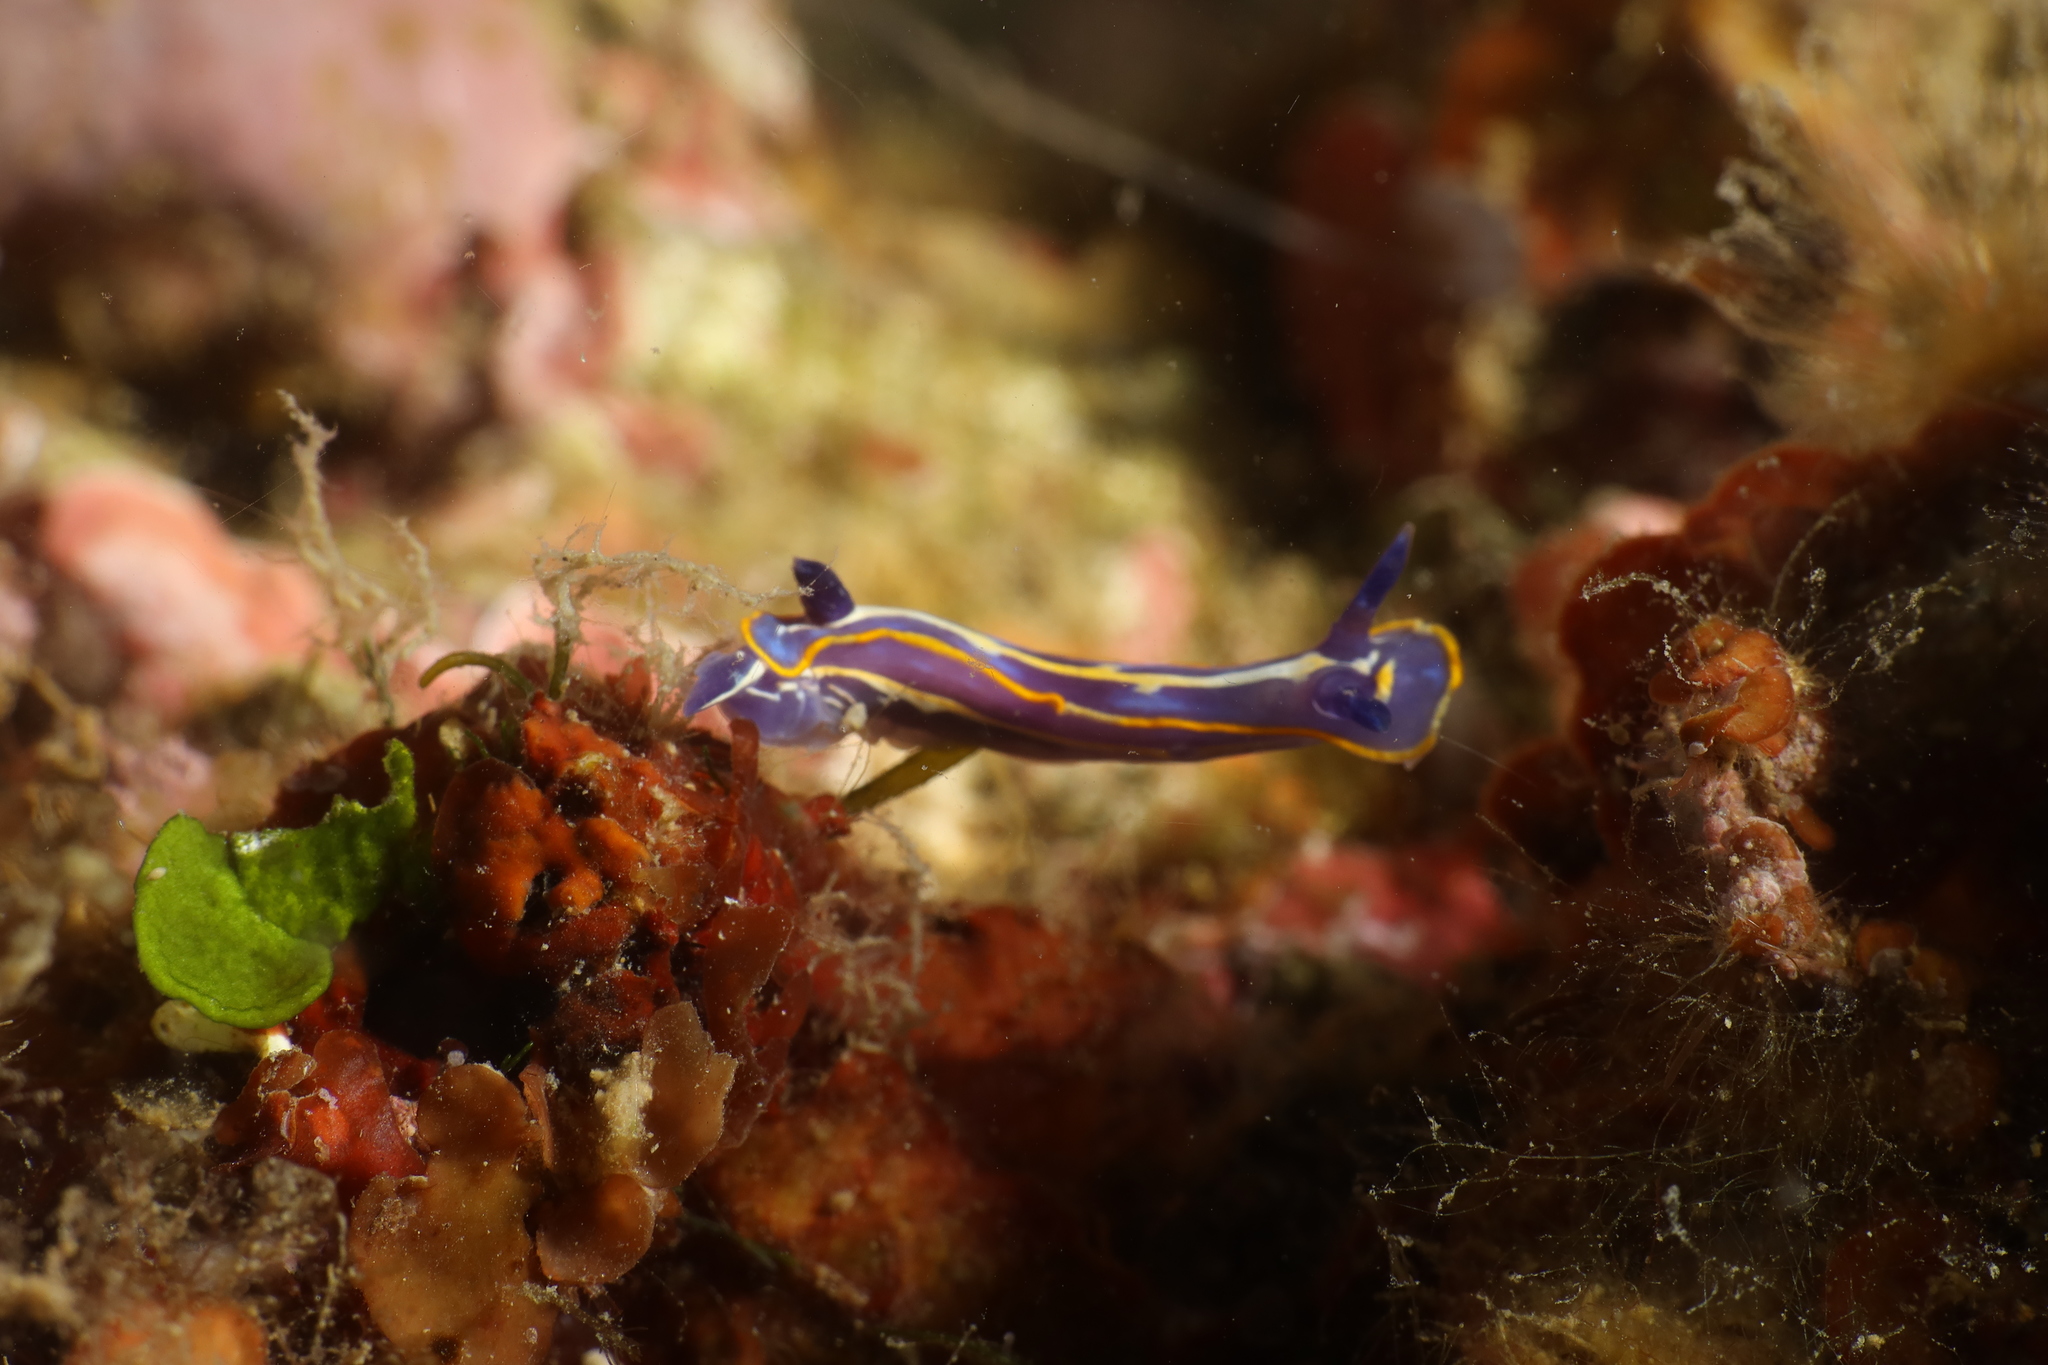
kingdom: Animalia
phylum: Mollusca
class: Gastropoda
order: Nudibranchia
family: Chromodorididae
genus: Felimare
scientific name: Felimare fontandraui
